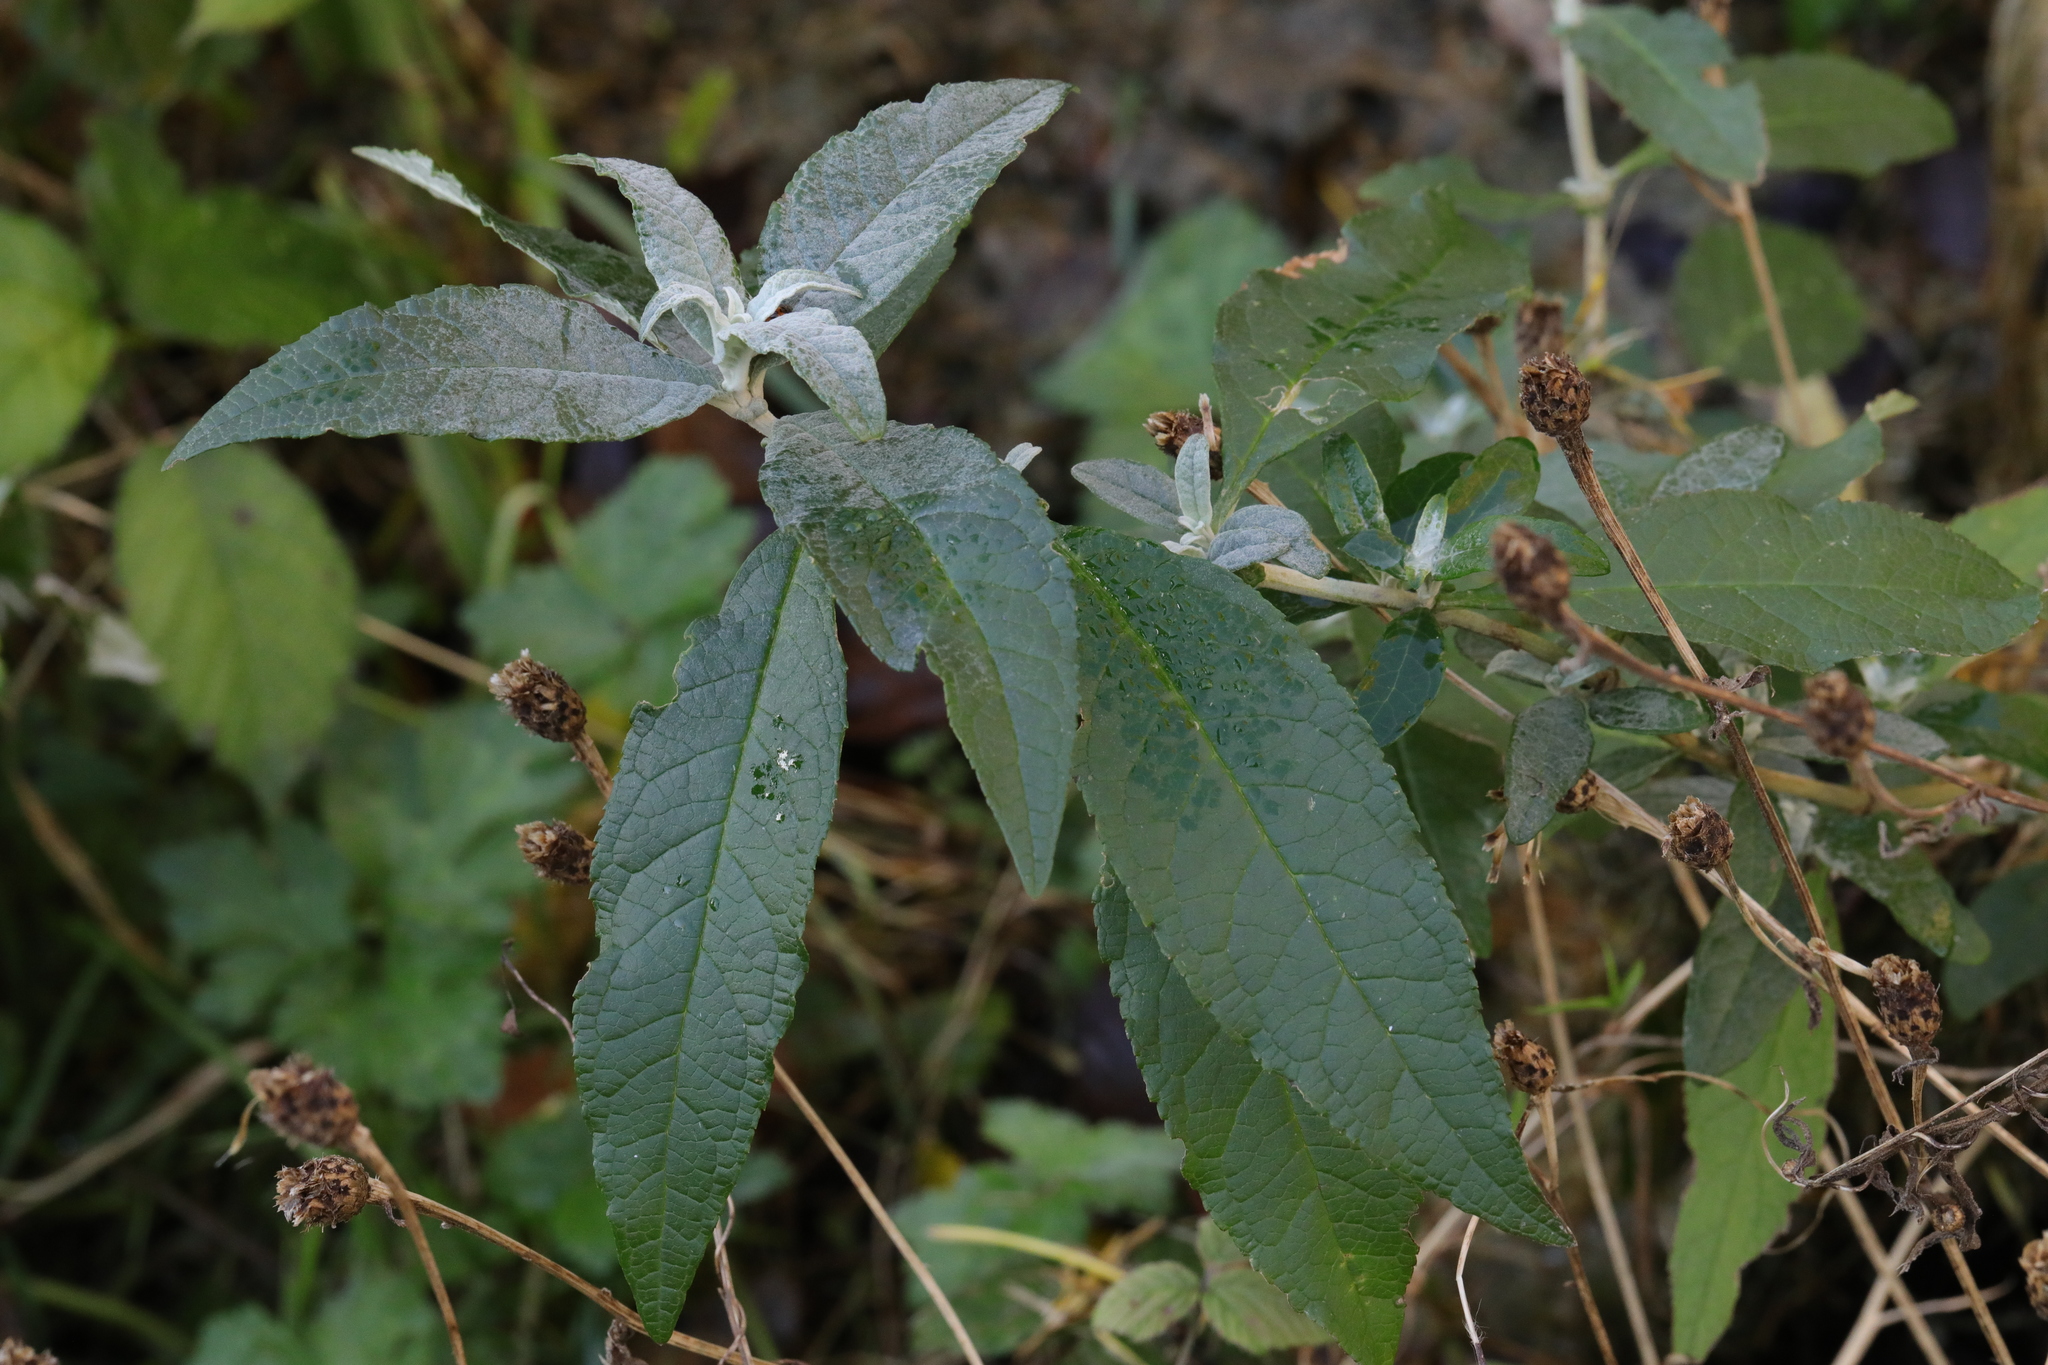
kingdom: Plantae
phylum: Tracheophyta
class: Magnoliopsida
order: Lamiales
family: Scrophulariaceae
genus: Buddleja
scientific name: Buddleja davidii
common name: Butterfly-bush
